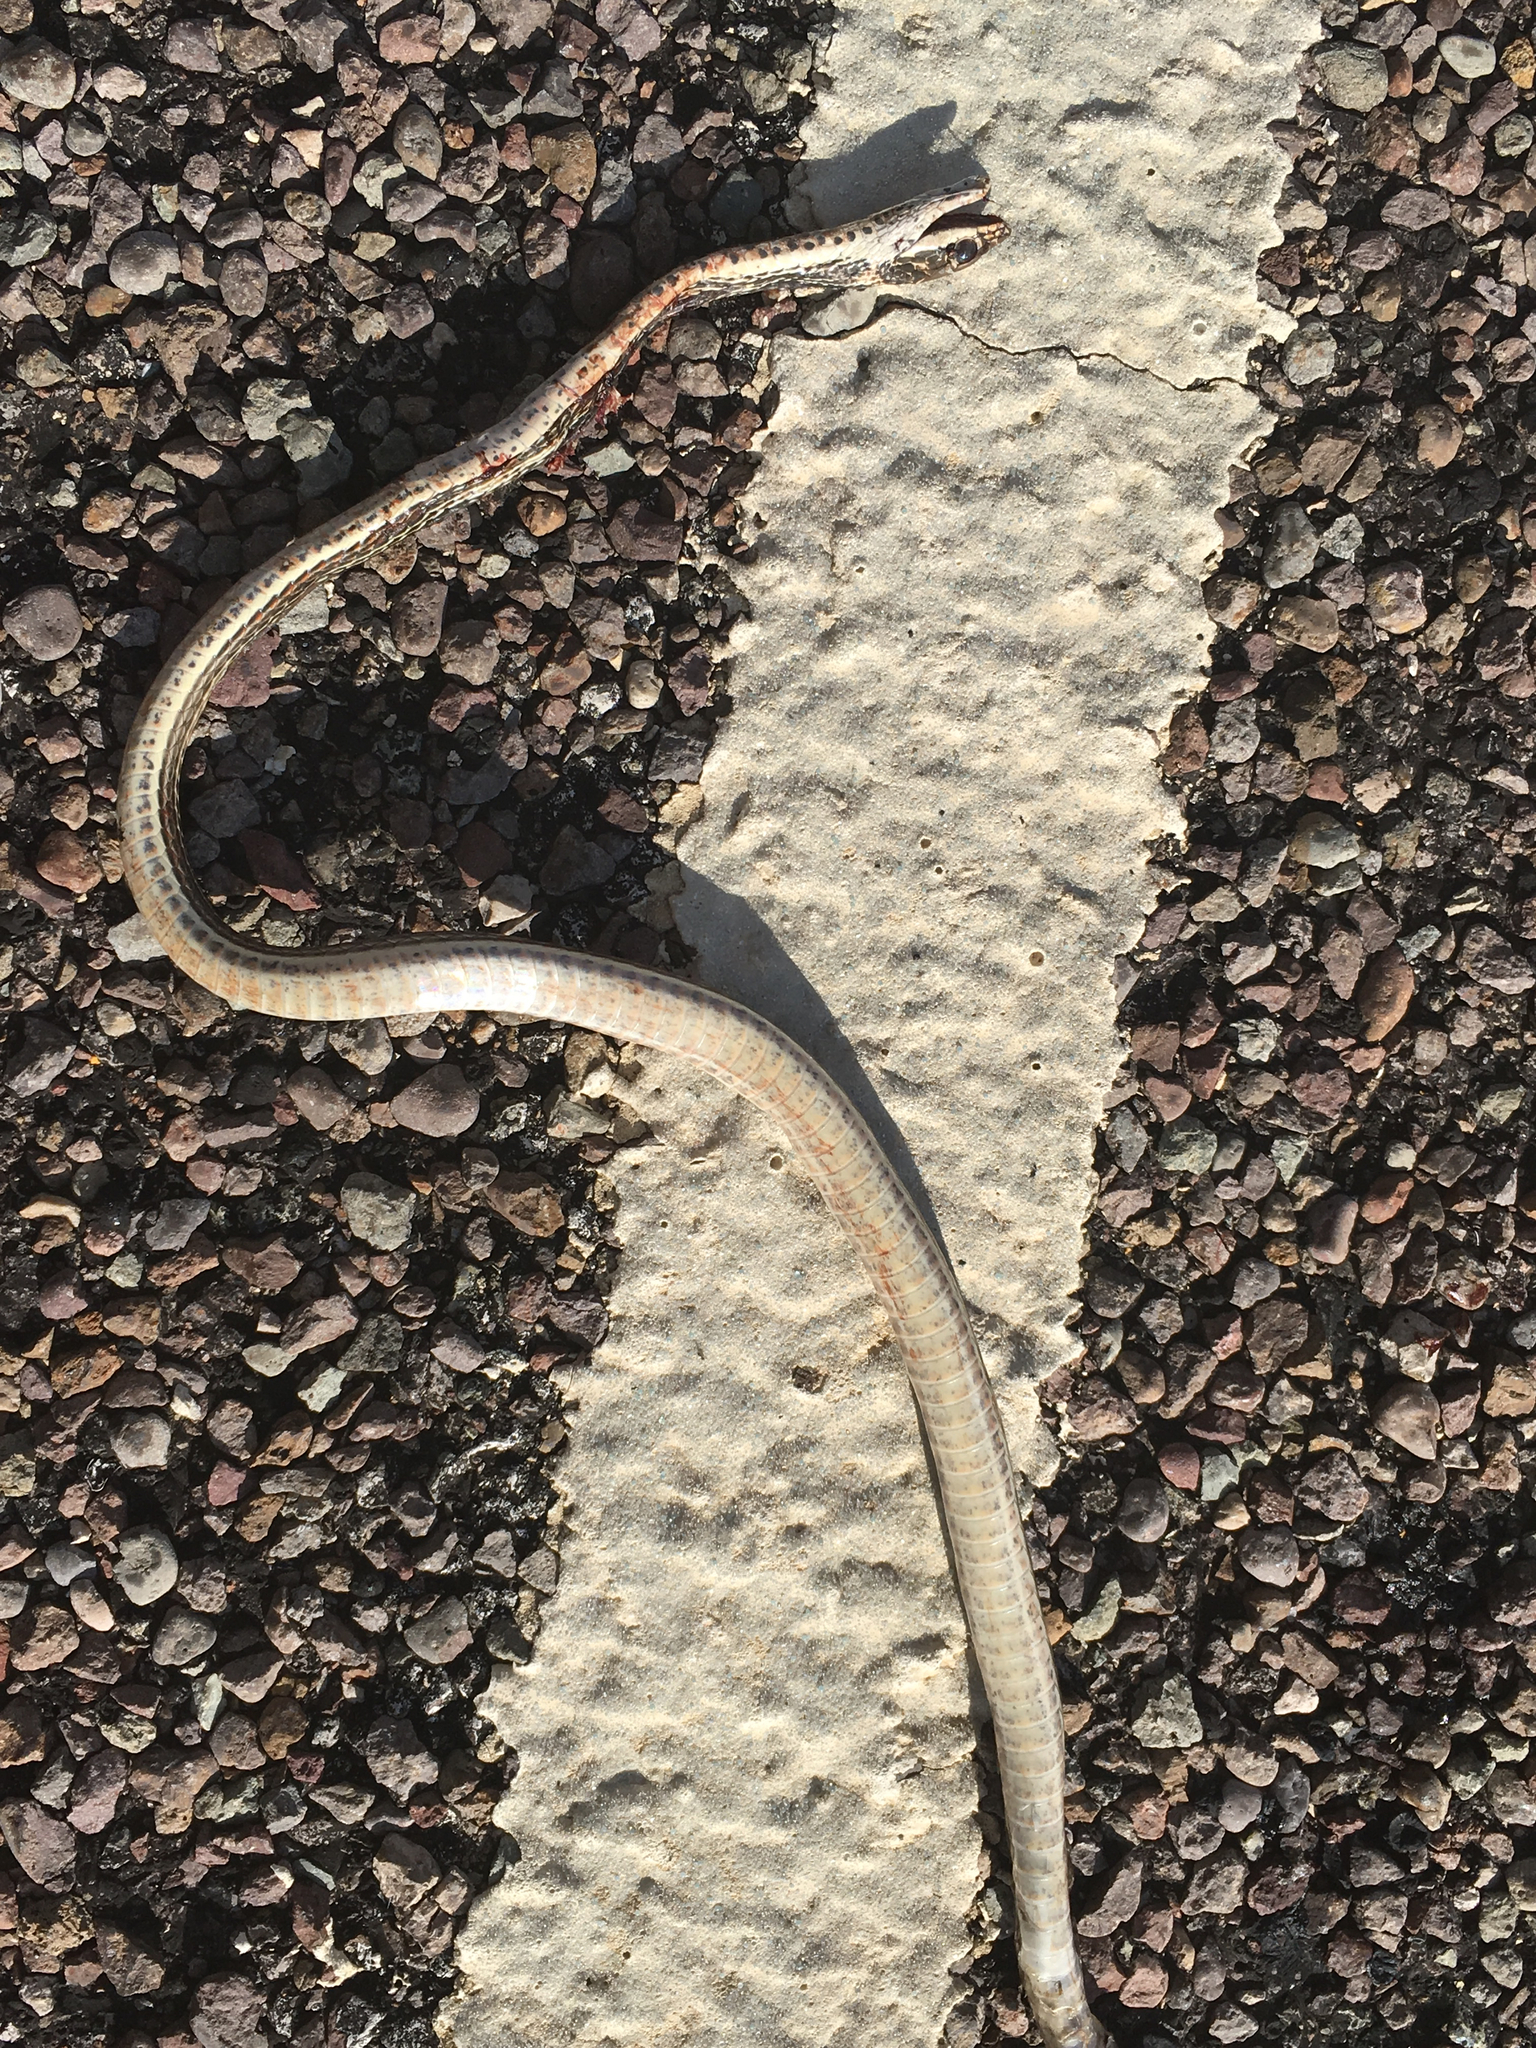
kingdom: Animalia
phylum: Chordata
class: Squamata
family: Colubridae
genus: Masticophis
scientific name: Masticophis taeniatus
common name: Striped whipsnake
